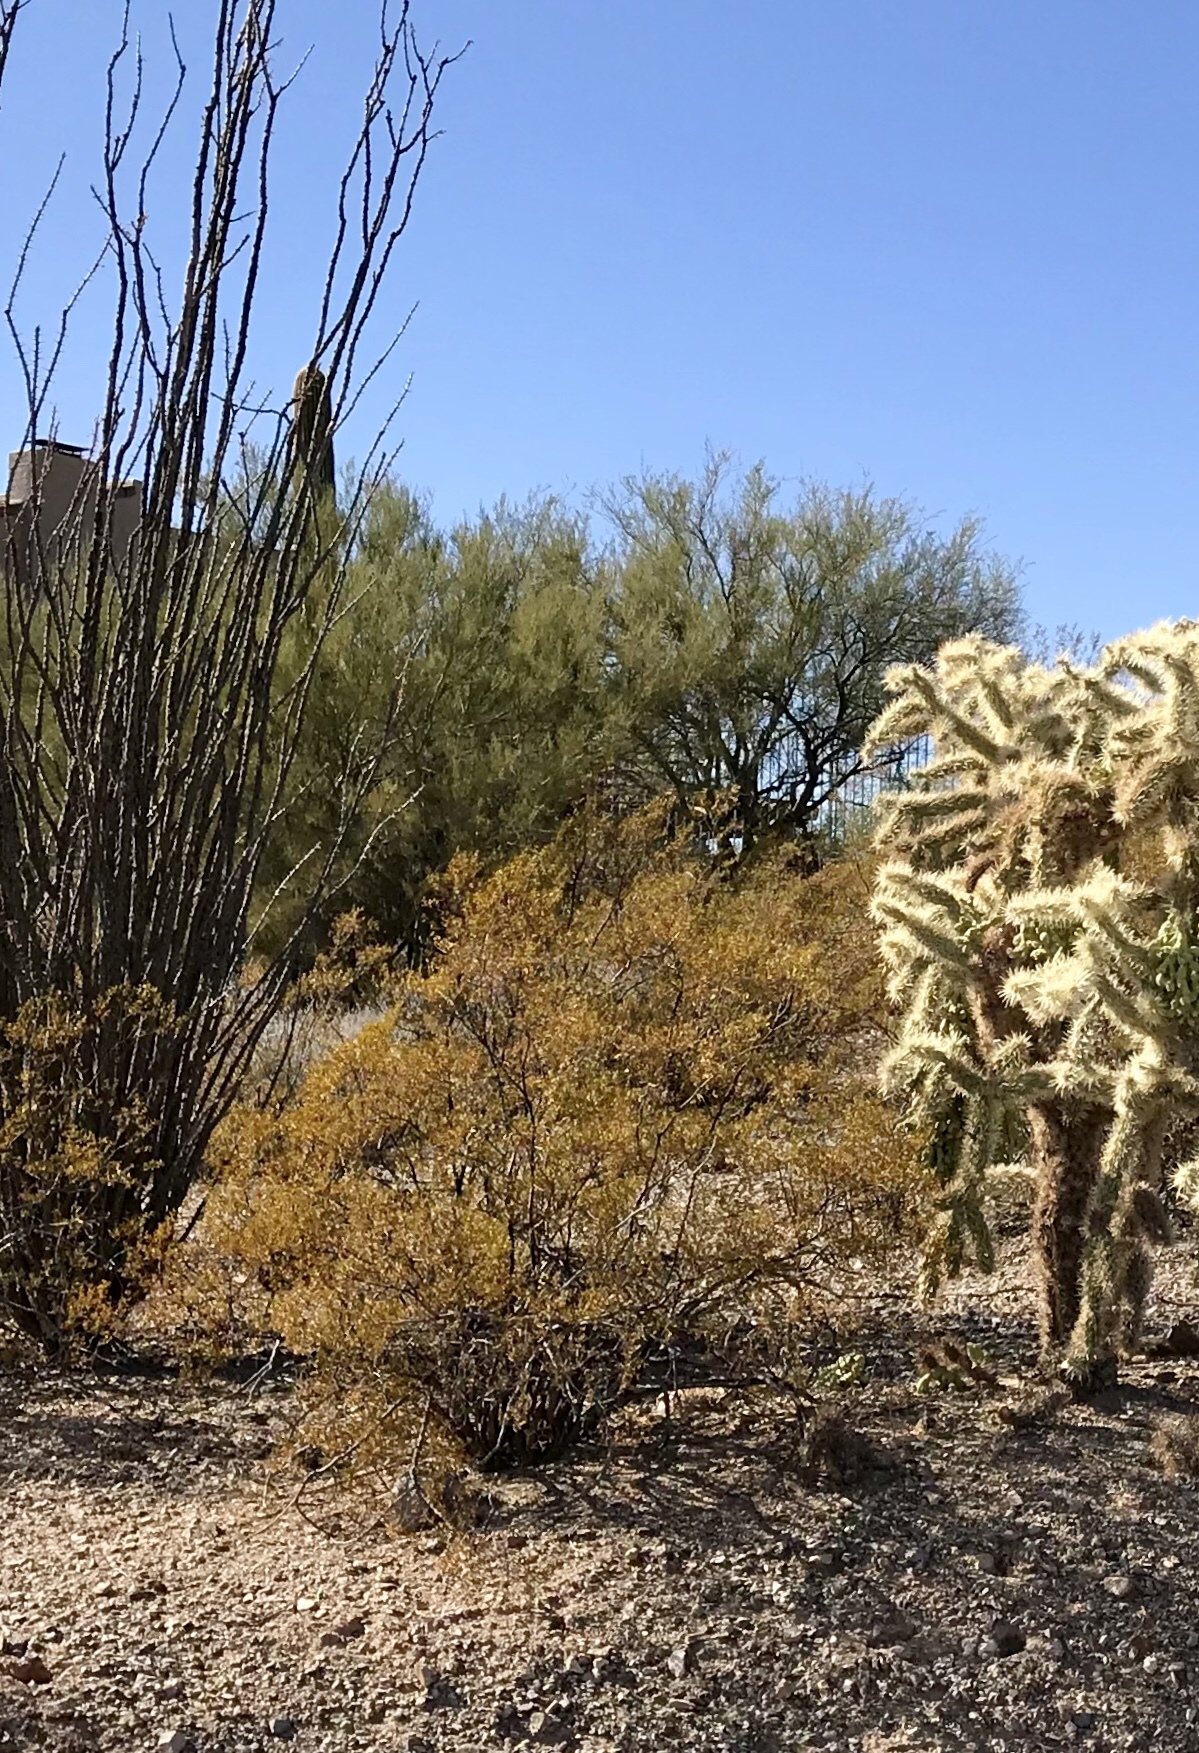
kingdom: Plantae
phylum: Tracheophyta
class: Magnoliopsida
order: Zygophyllales
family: Zygophyllaceae
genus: Larrea
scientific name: Larrea tridentata
